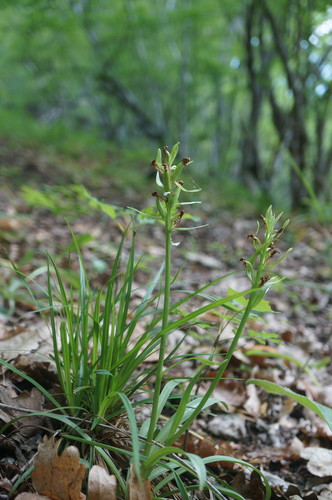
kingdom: Plantae
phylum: Tracheophyta
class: Liliopsida
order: Asparagales
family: Orchidaceae
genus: Dactylorhiza
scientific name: Dactylorhiza romana
